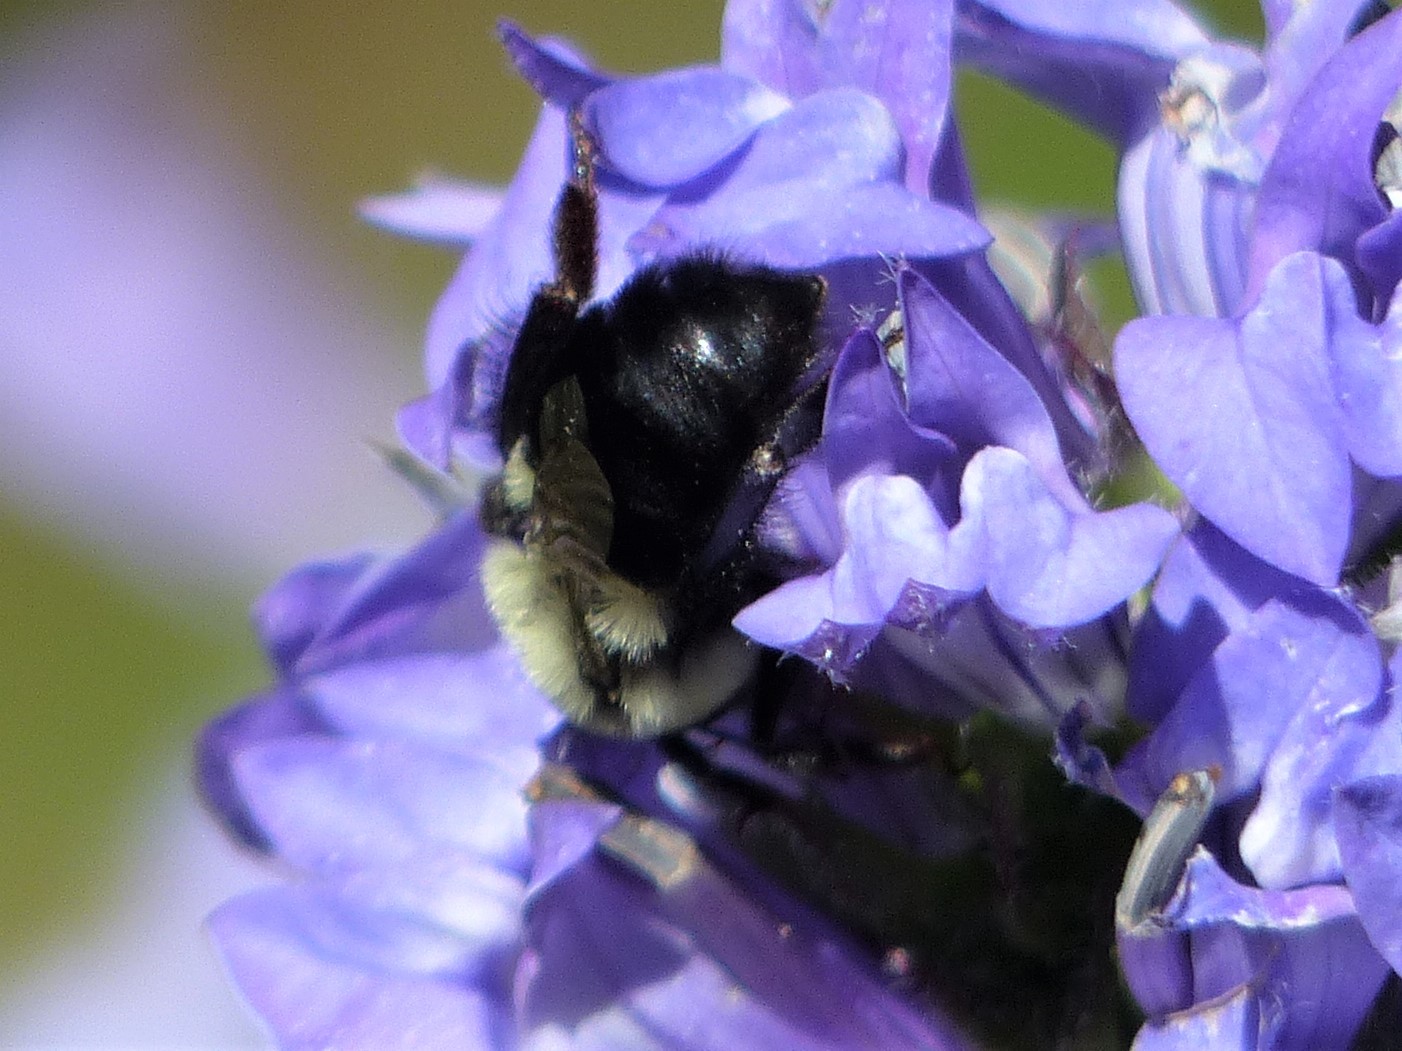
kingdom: Animalia
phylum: Arthropoda
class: Insecta
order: Hymenoptera
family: Apidae
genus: Bombus
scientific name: Bombus impatiens
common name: Common eastern bumble bee
